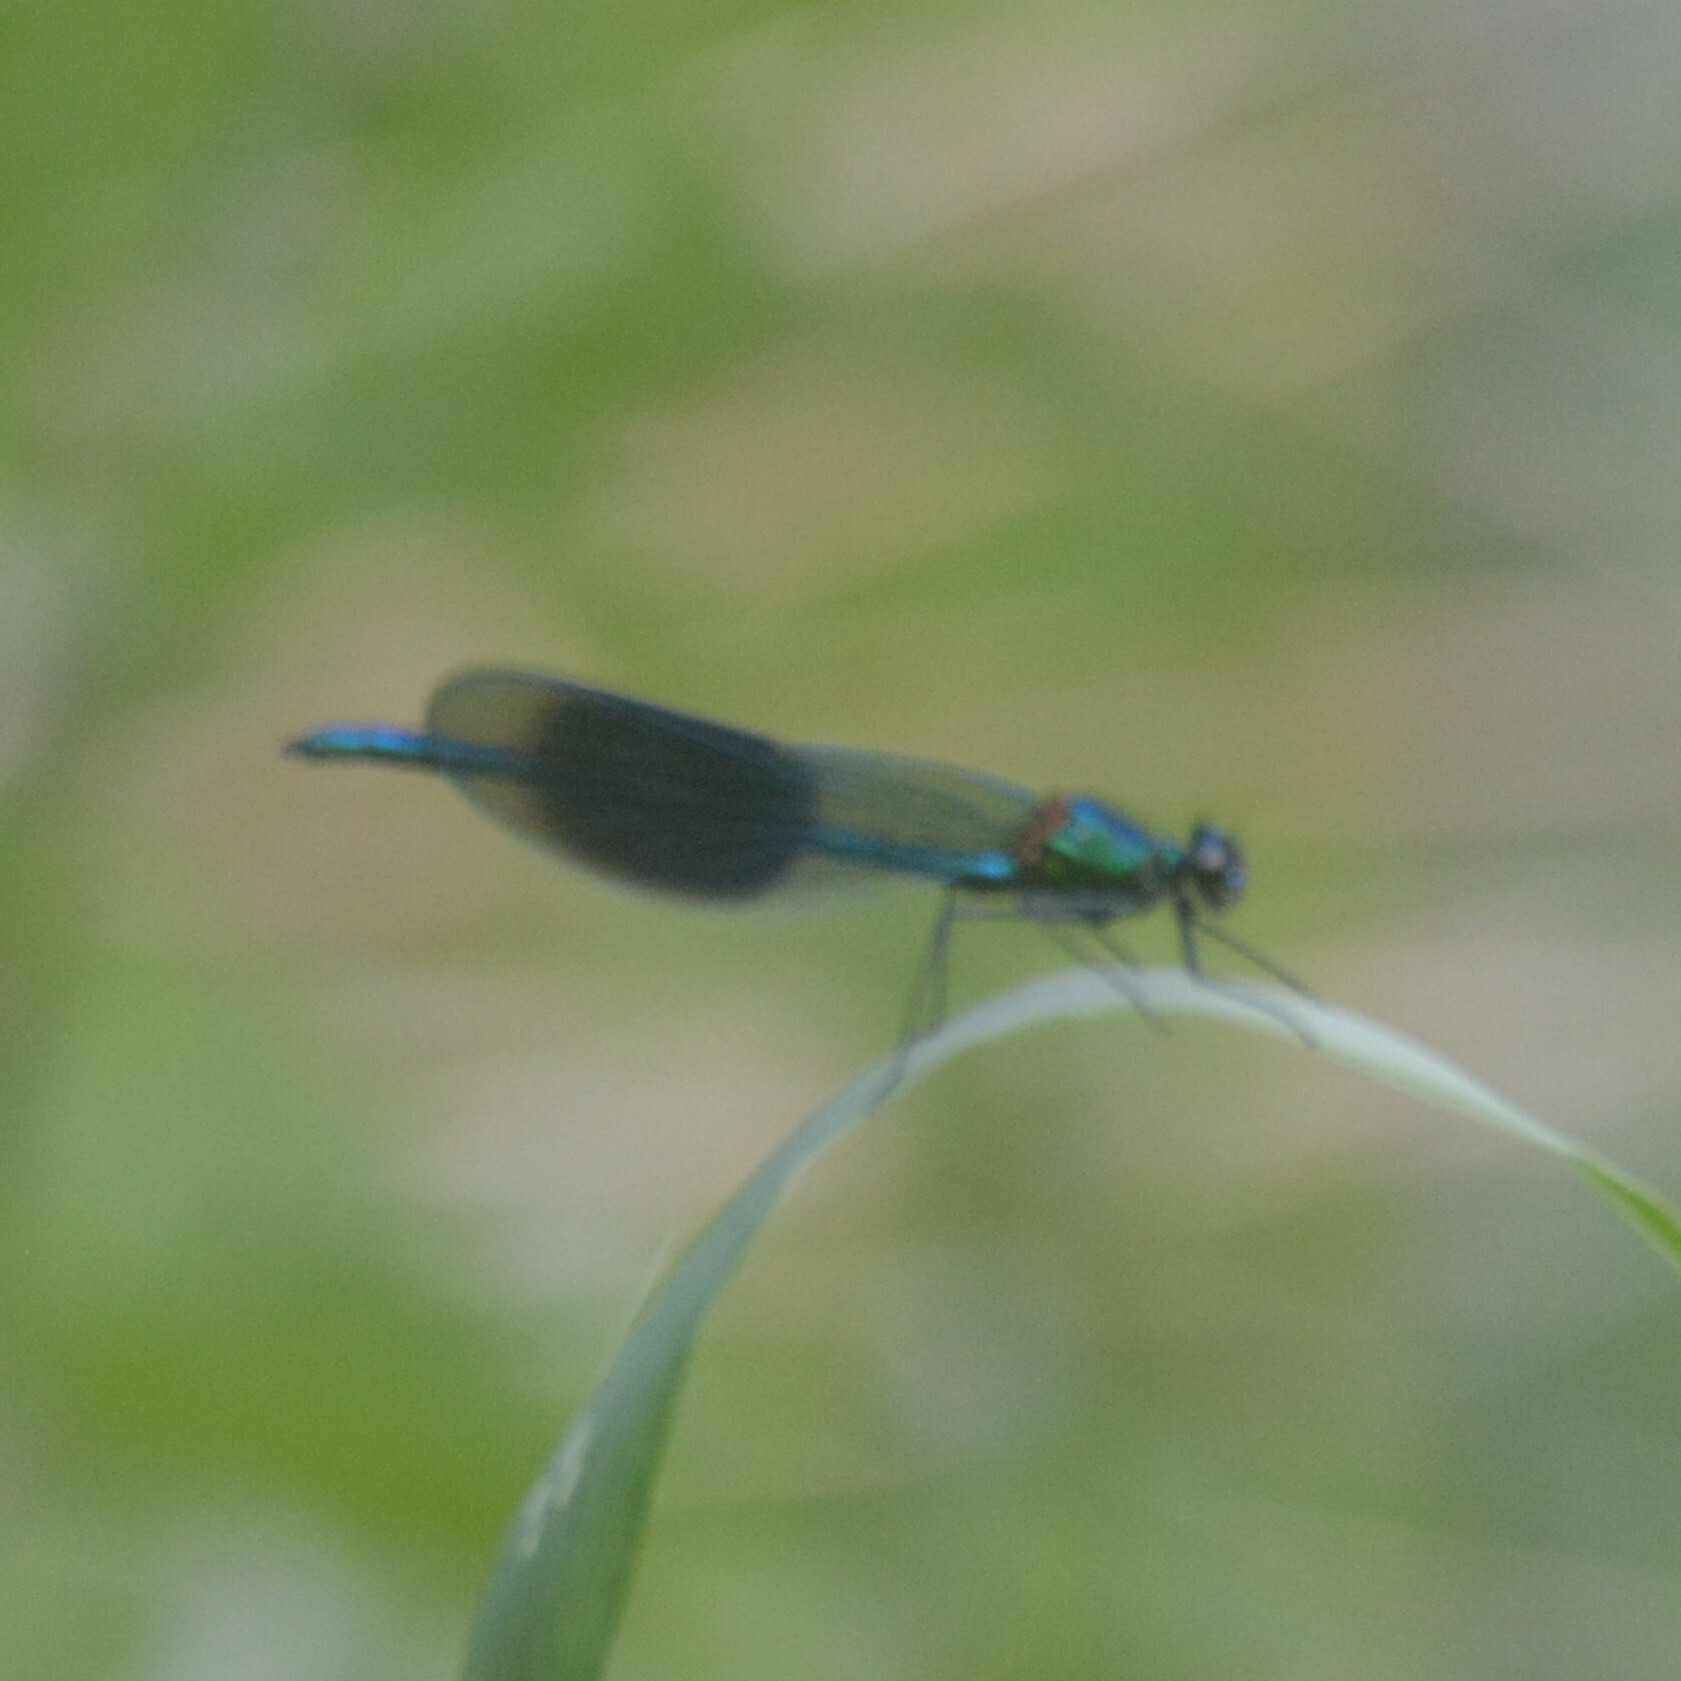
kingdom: Animalia
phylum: Arthropoda
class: Insecta
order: Odonata
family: Calopterygidae
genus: Calopteryx
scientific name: Calopteryx splendens
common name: Banded demoiselle
